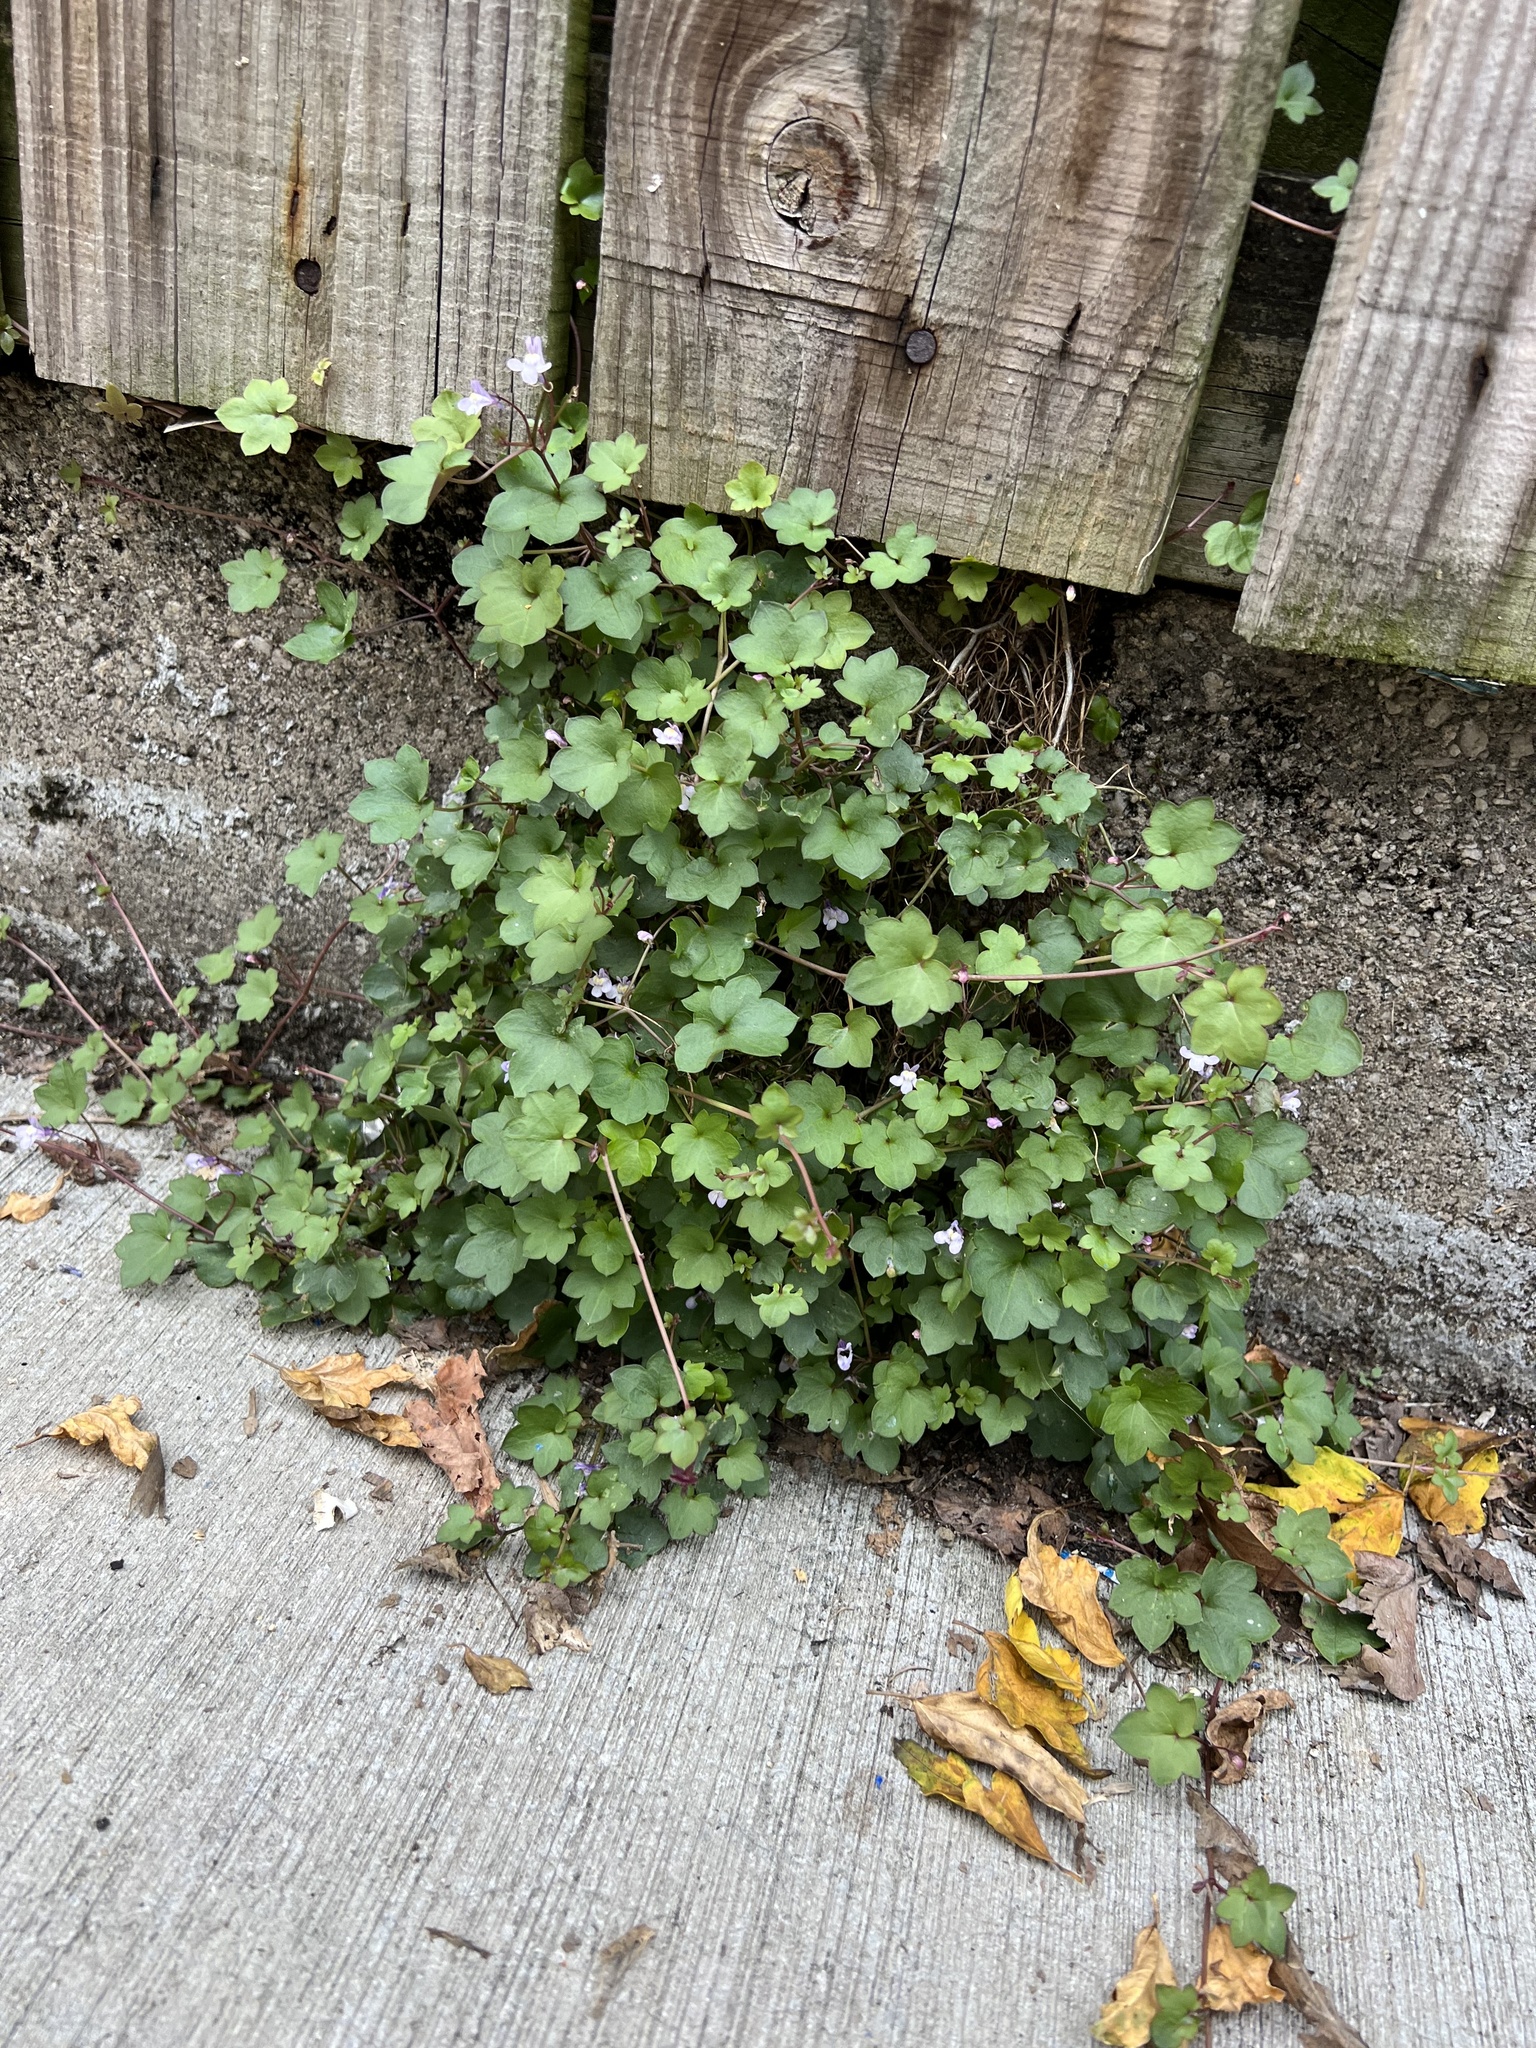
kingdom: Plantae
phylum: Tracheophyta
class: Magnoliopsida
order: Lamiales
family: Plantaginaceae
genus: Cymbalaria
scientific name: Cymbalaria muralis
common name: Ivy-leaved toadflax
